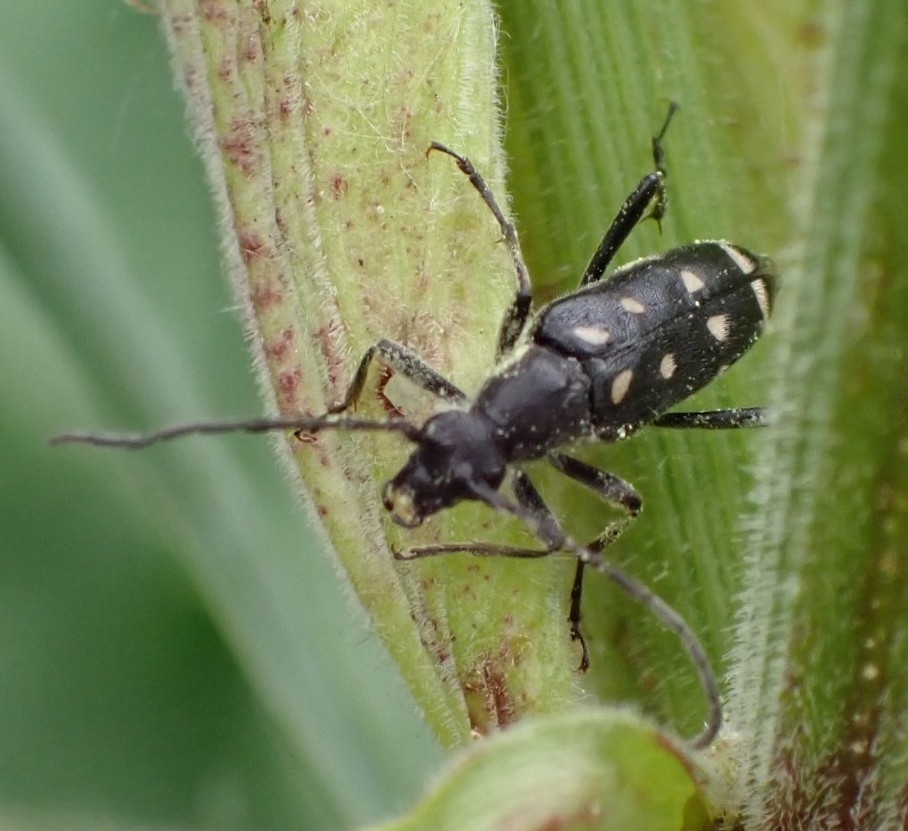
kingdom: Animalia
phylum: Arthropoda
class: Insecta
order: Coleoptera
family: Cerambycidae
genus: Leptura
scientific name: Leptura duodecimguttata
